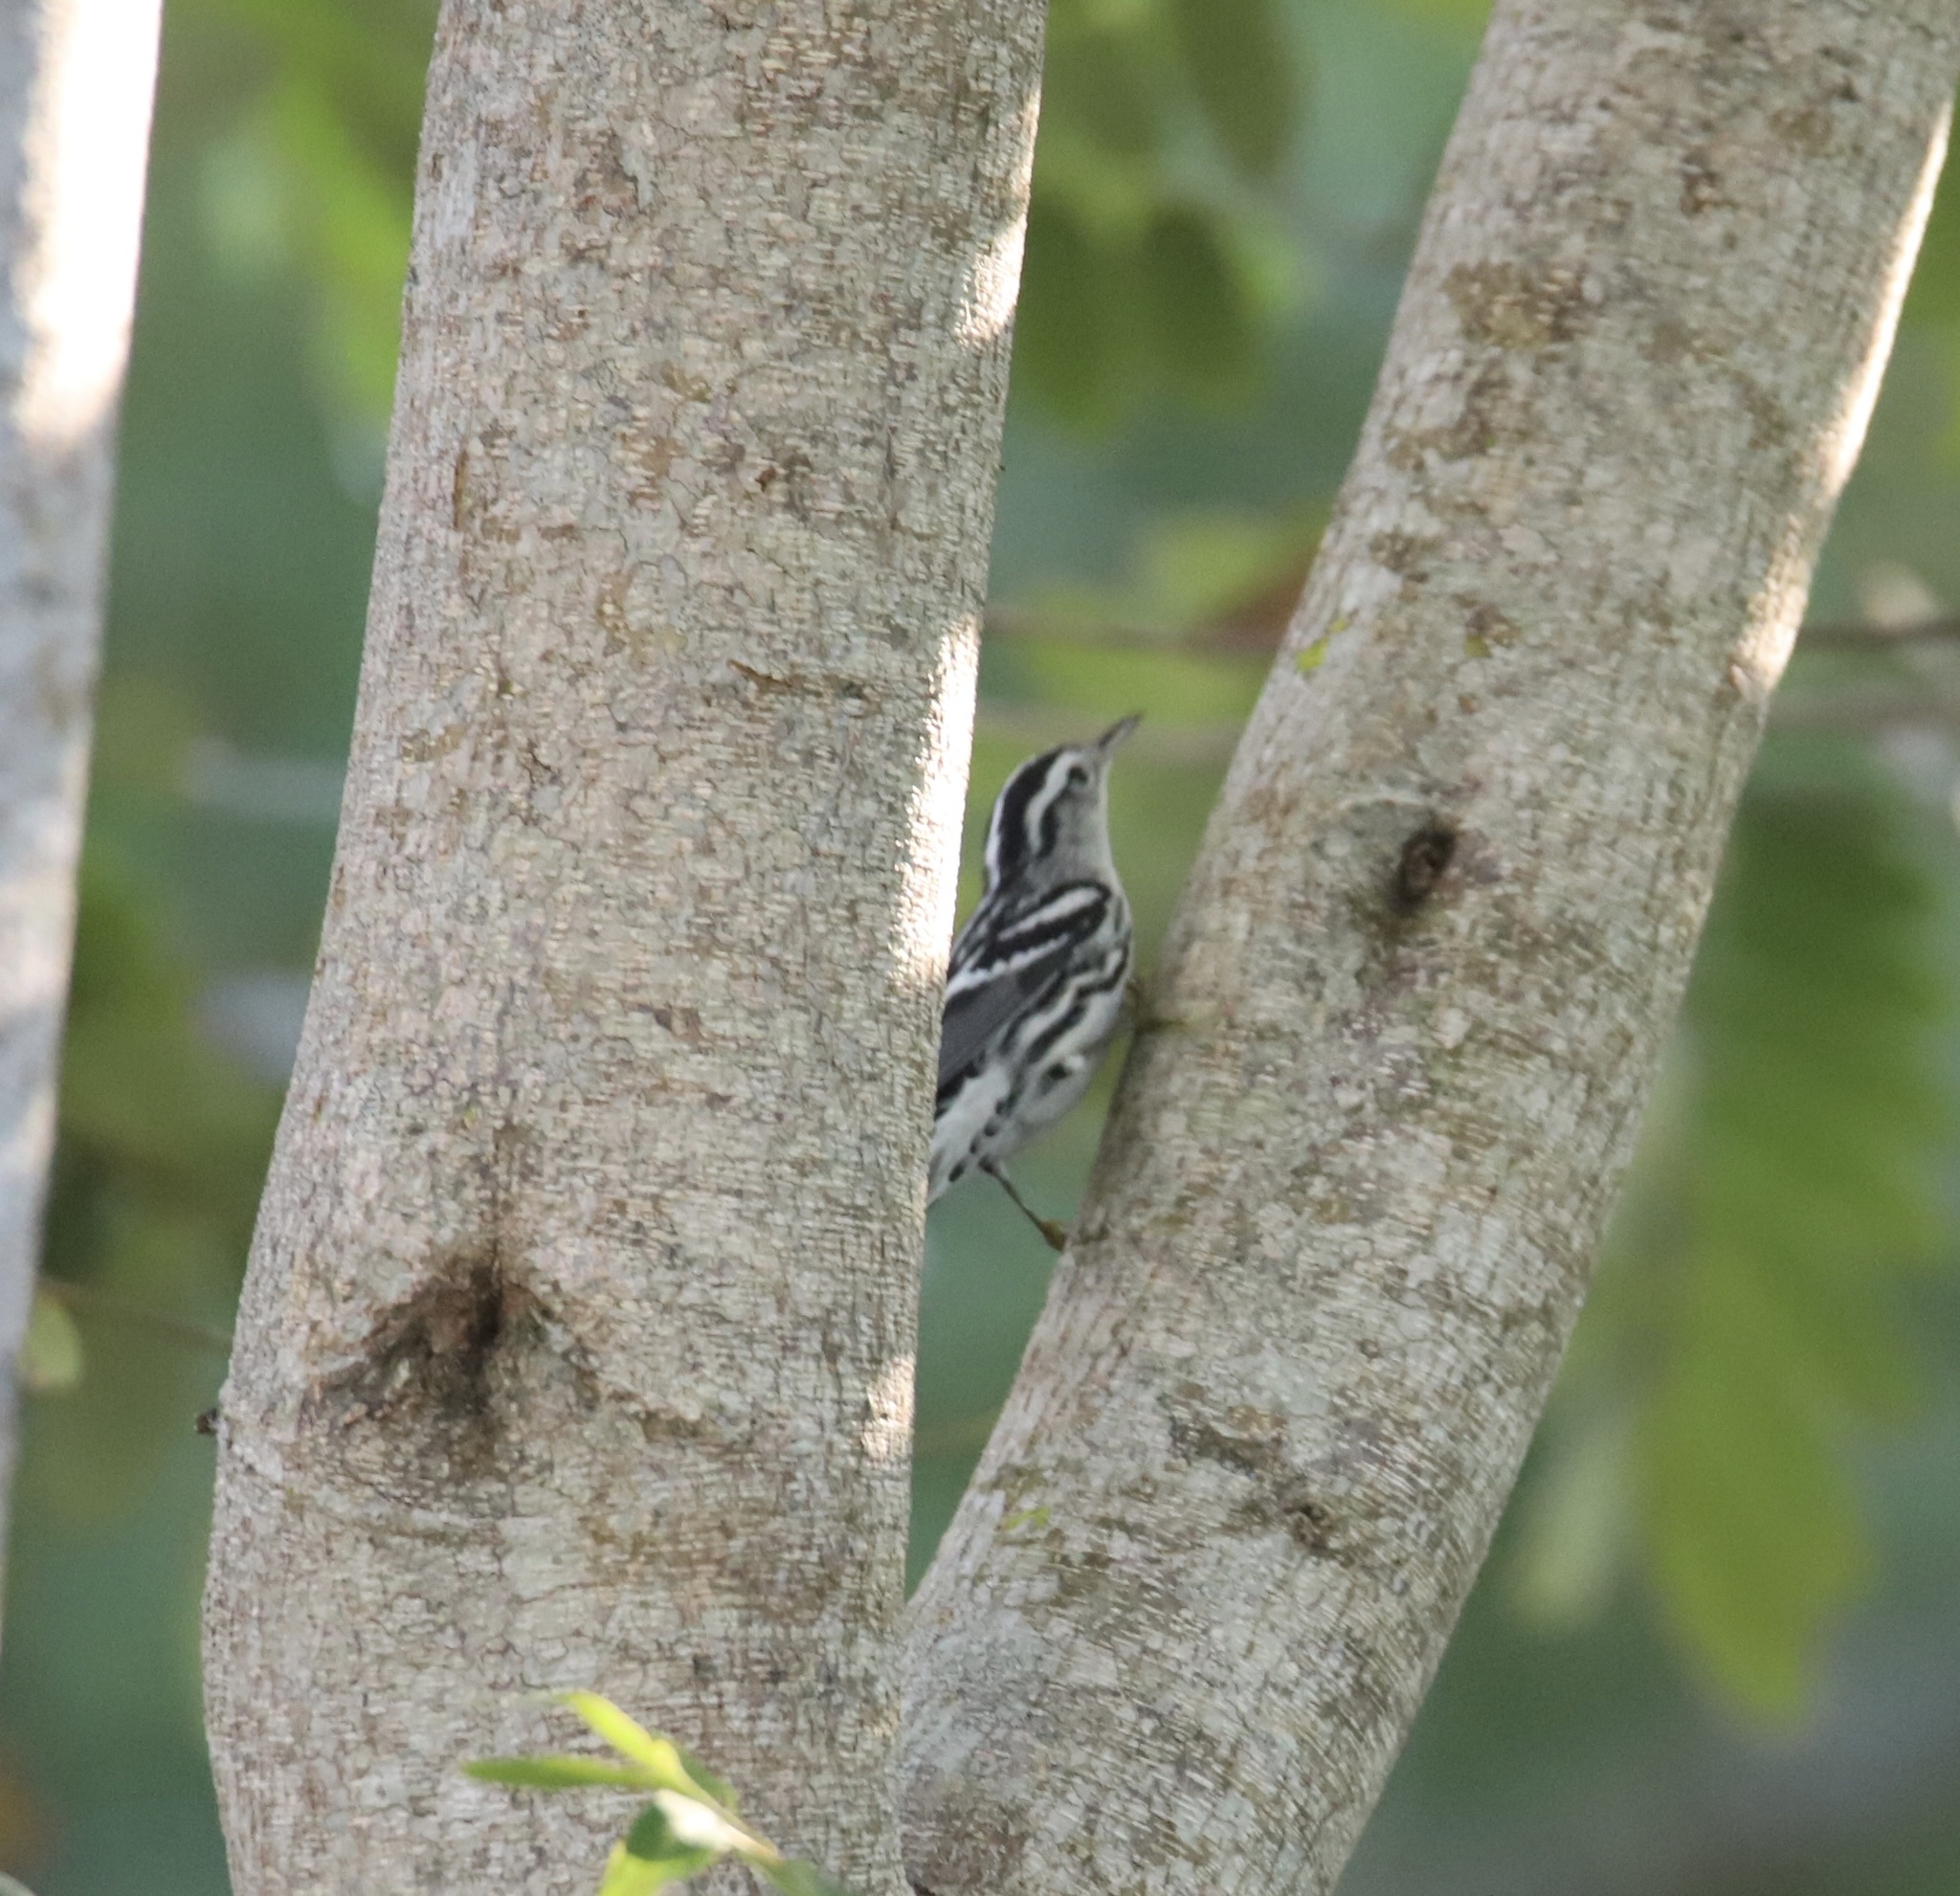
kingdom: Animalia
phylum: Chordata
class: Aves
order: Passeriformes
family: Parulidae
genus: Mniotilta
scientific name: Mniotilta varia
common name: Black-and-white warbler
